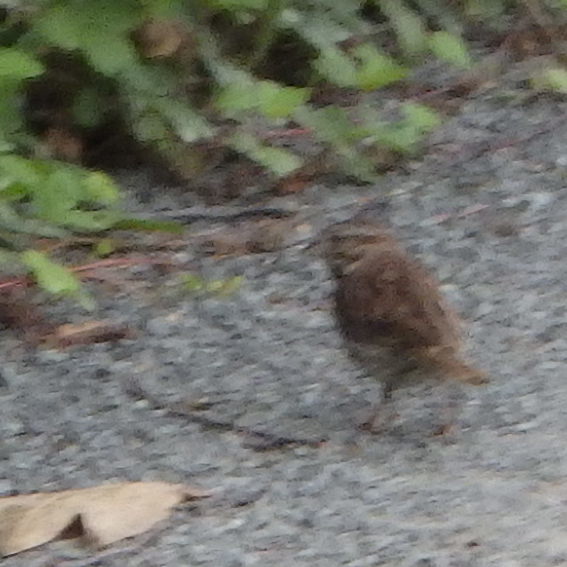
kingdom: Animalia
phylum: Chordata
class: Aves
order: Passeriformes
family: Passerellidae
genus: Melospiza
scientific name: Melospiza melodia
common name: Song sparrow
